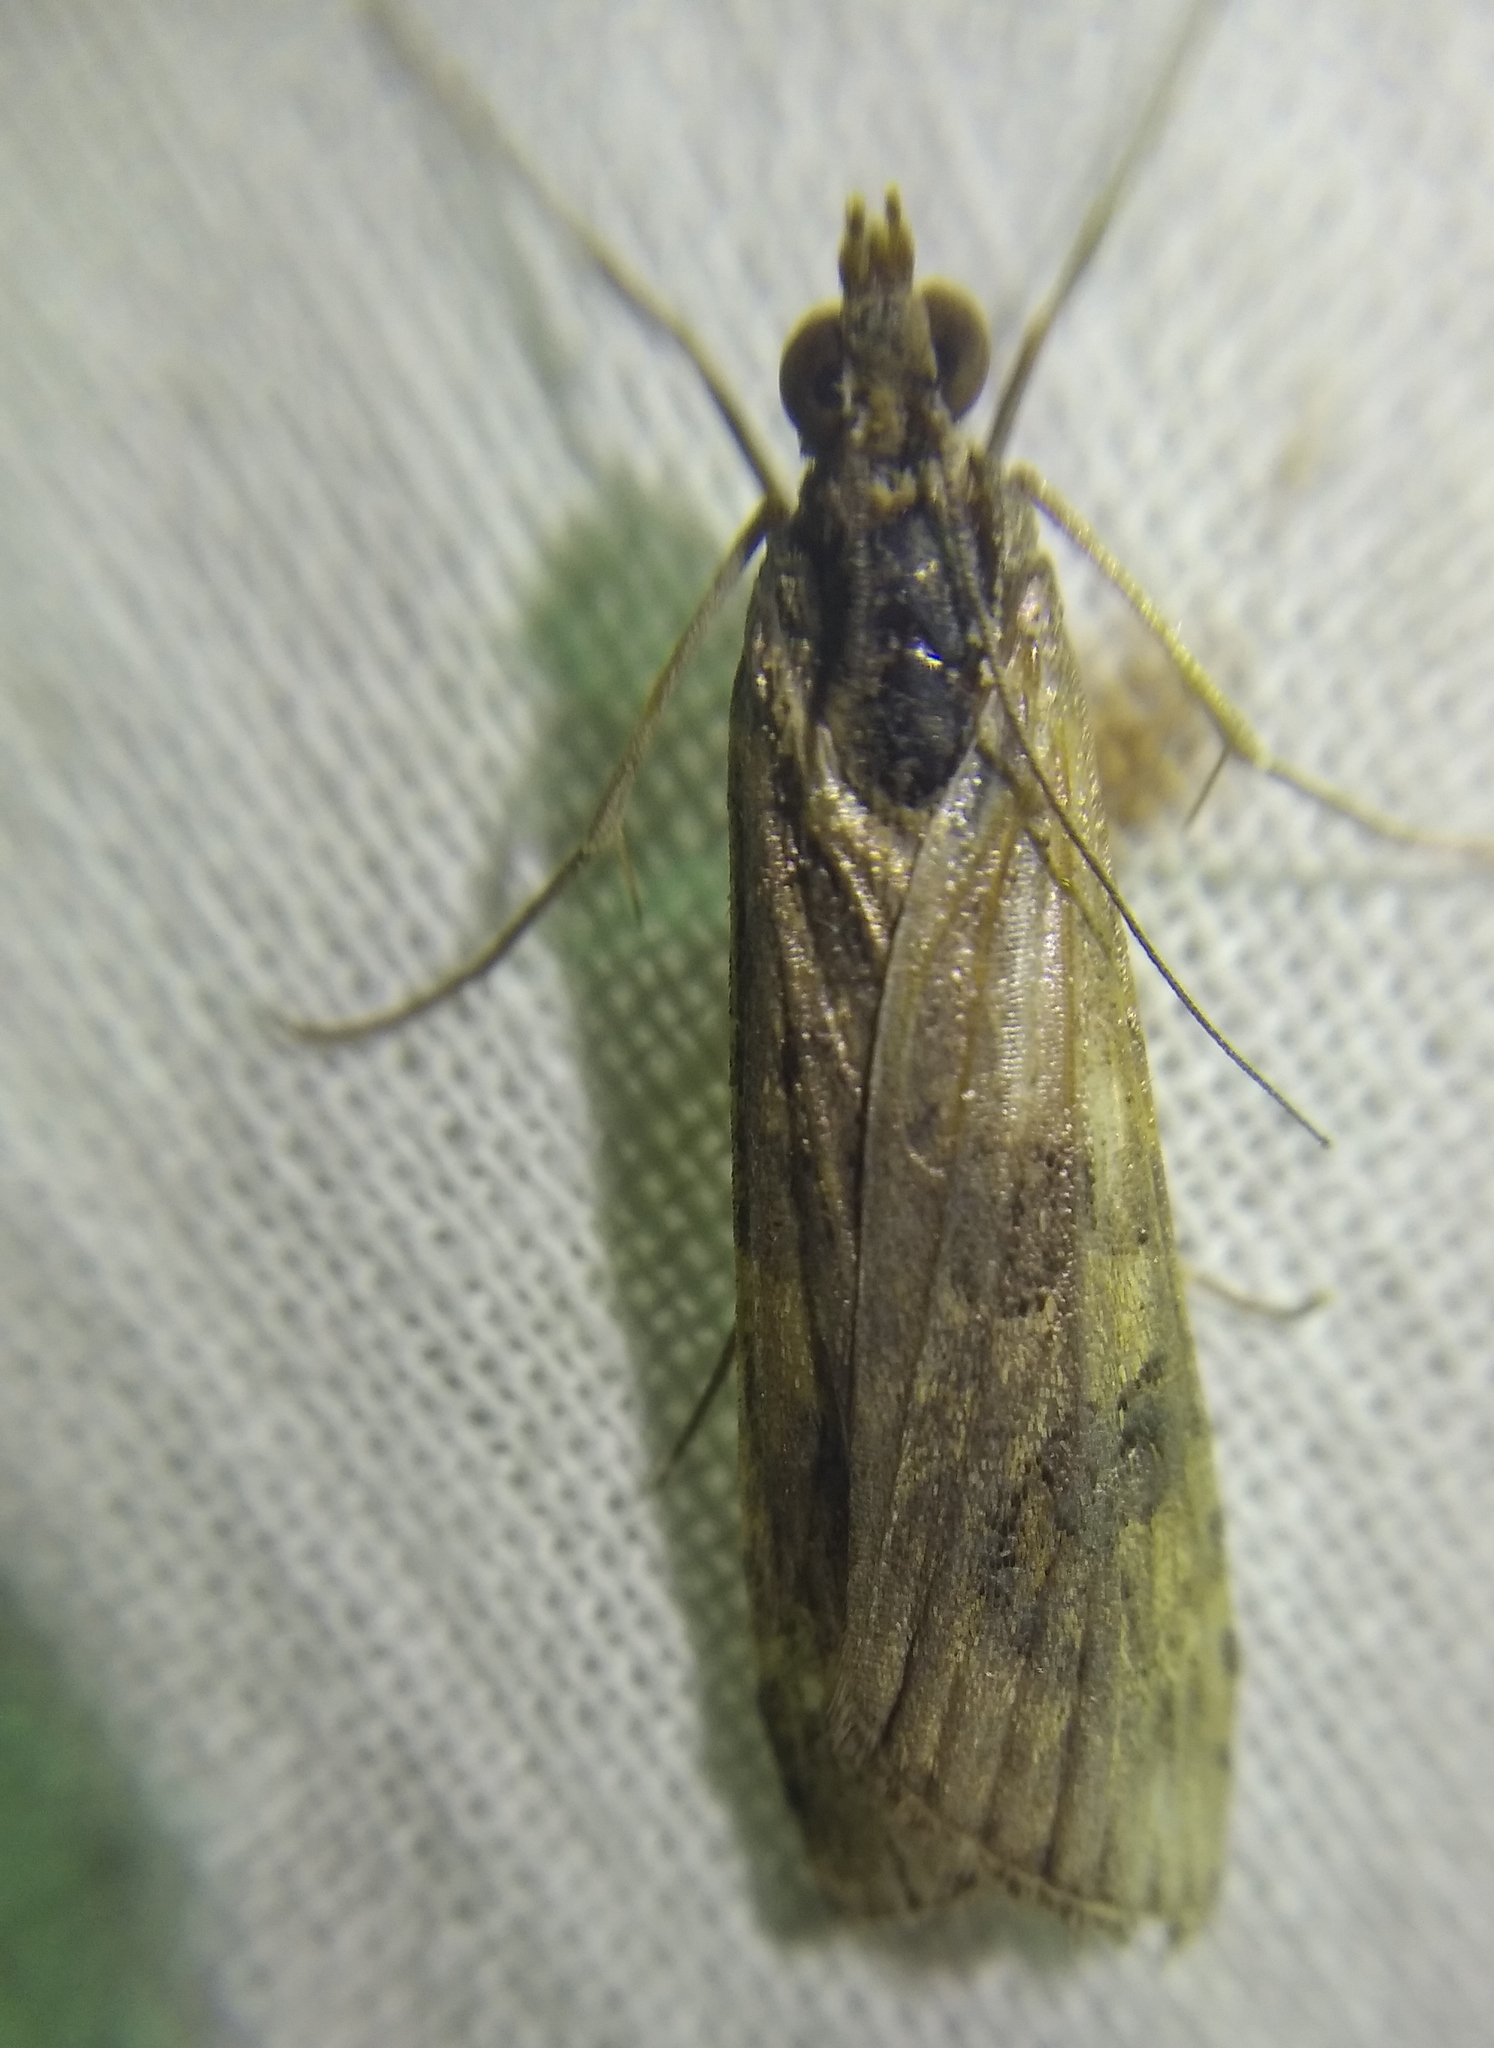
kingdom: Animalia
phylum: Arthropoda
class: Insecta
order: Lepidoptera
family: Crambidae
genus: Nomophila
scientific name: Nomophila noctuella
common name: Rush veneer
